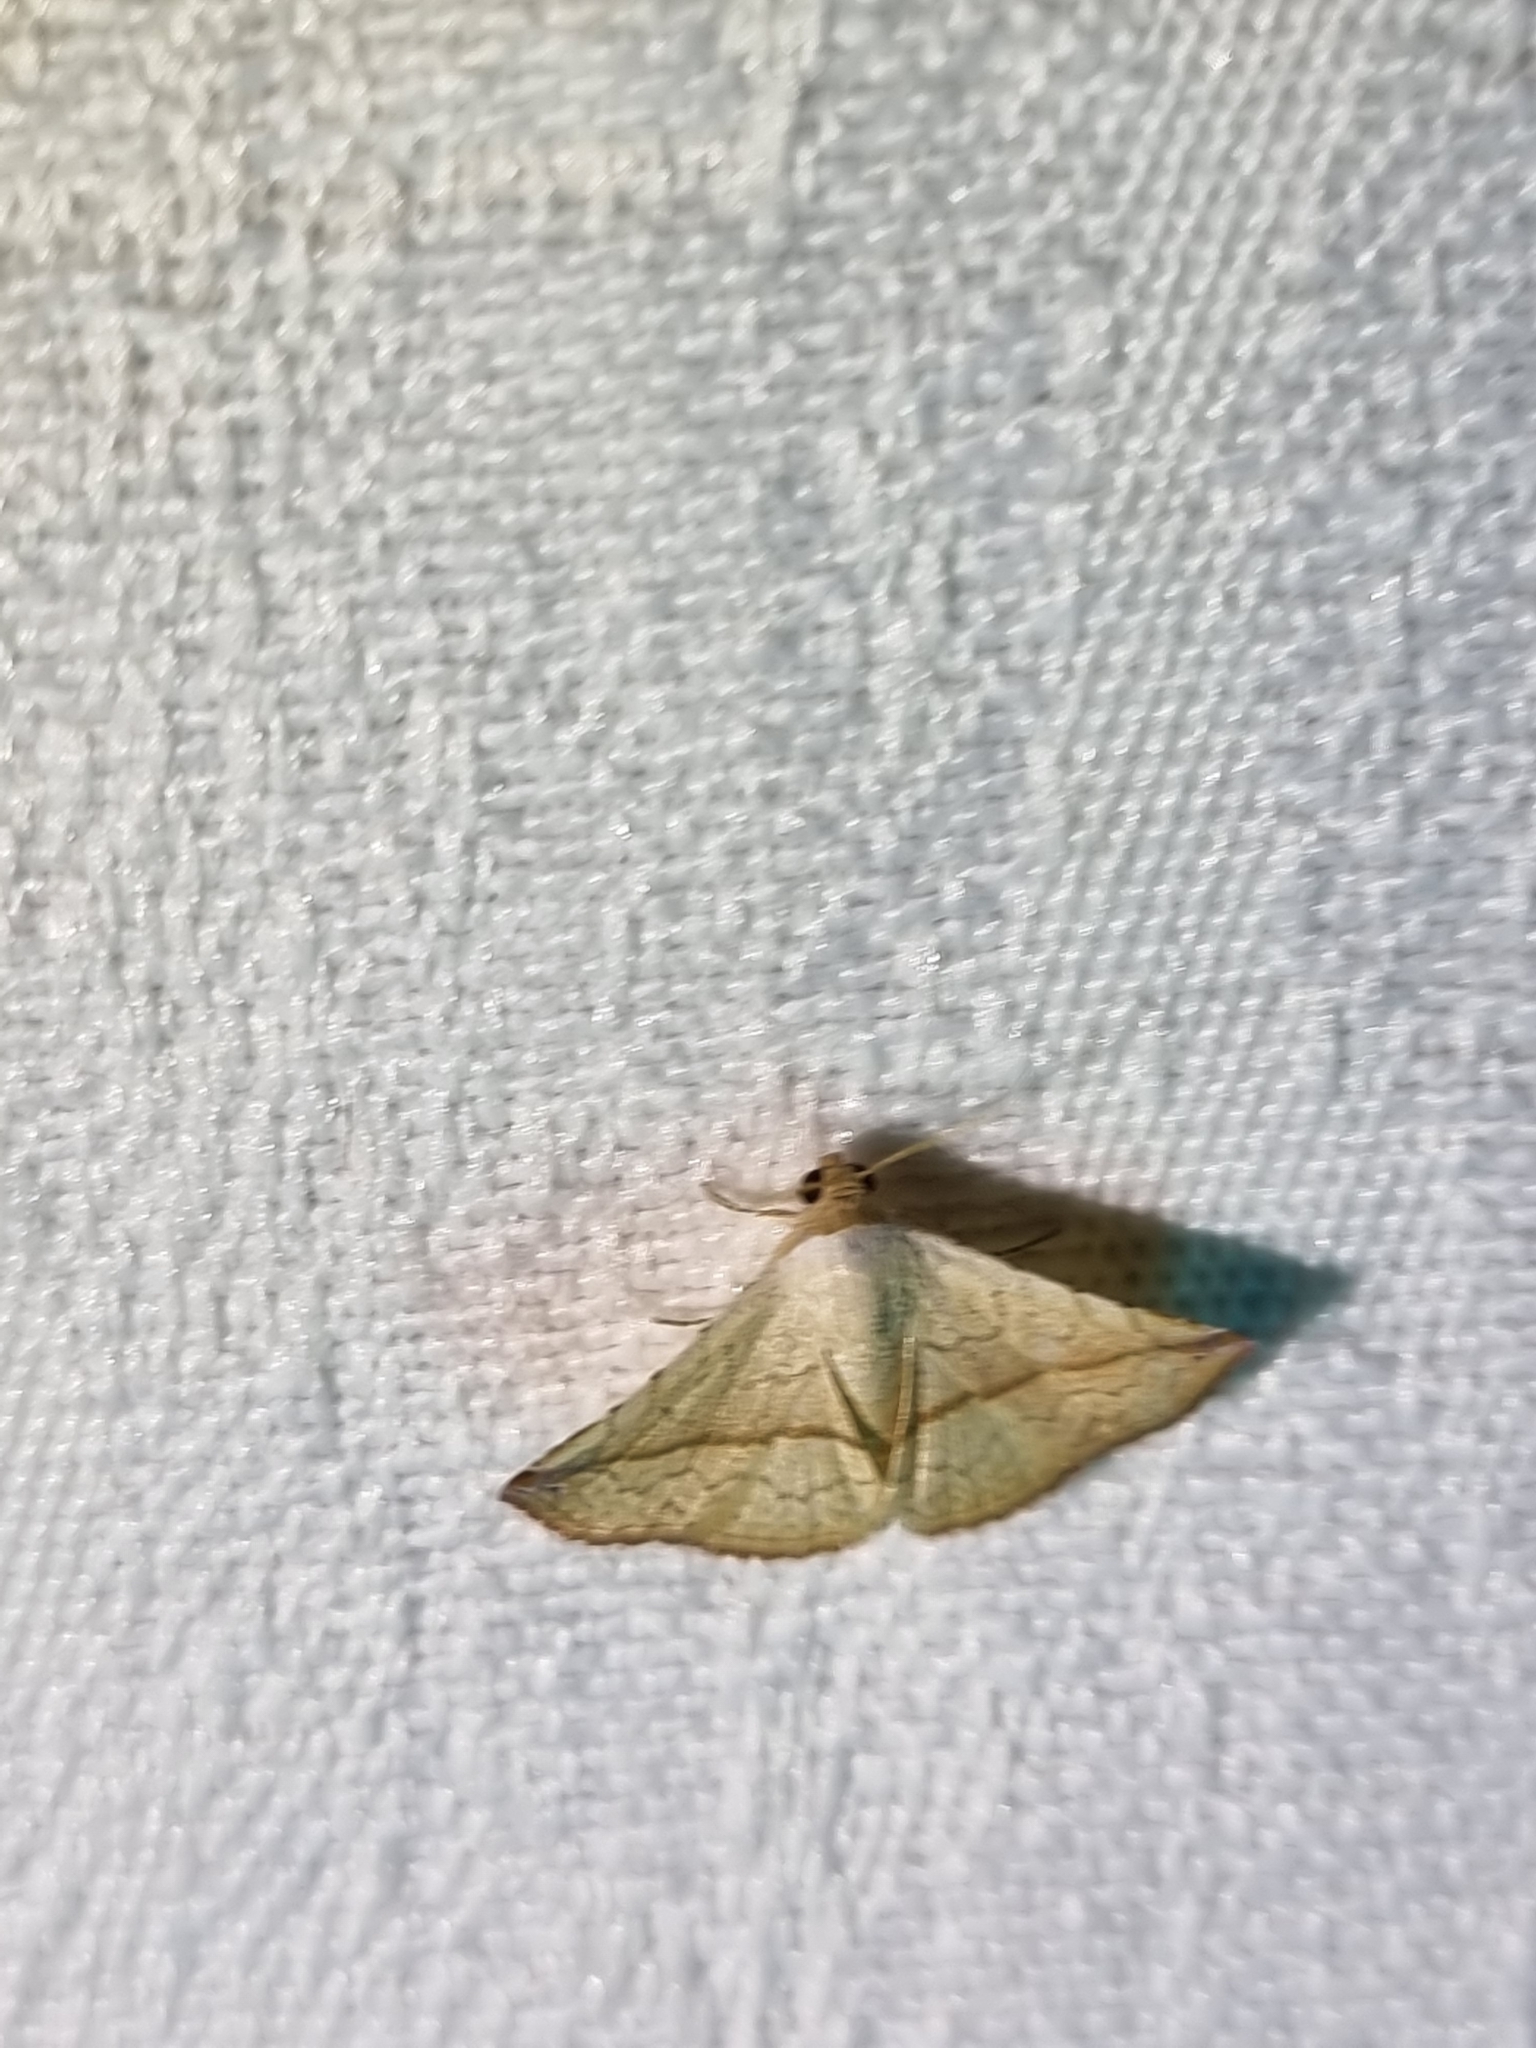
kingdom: Animalia
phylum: Arthropoda
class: Insecta
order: Lepidoptera
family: Noctuidae
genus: Eublemma
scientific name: Eublemma perversicolor
